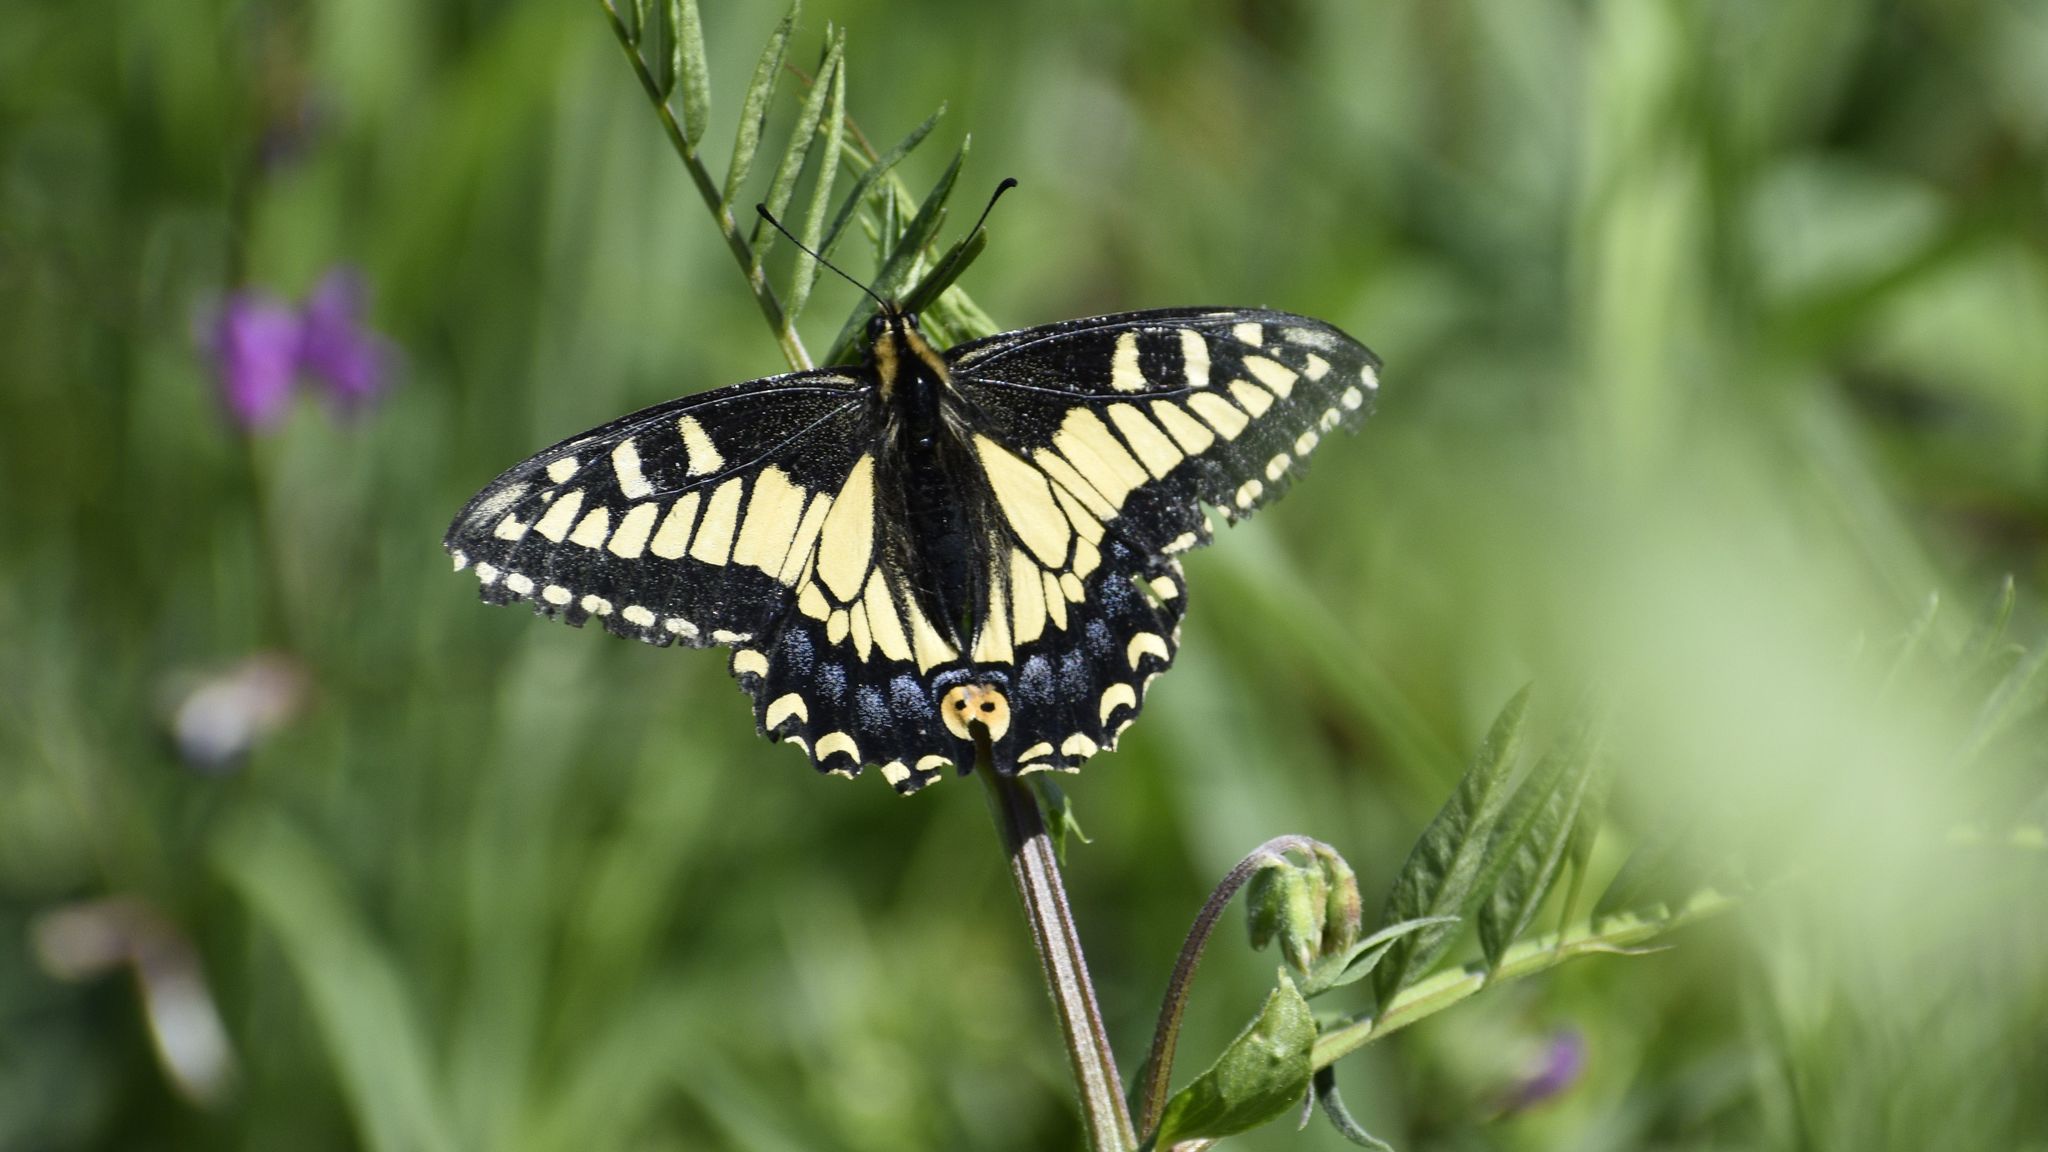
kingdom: Animalia
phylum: Arthropoda
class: Insecta
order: Lepidoptera
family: Papilionidae
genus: Papilio
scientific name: Papilio zelicaon
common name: Anise swallowtail
